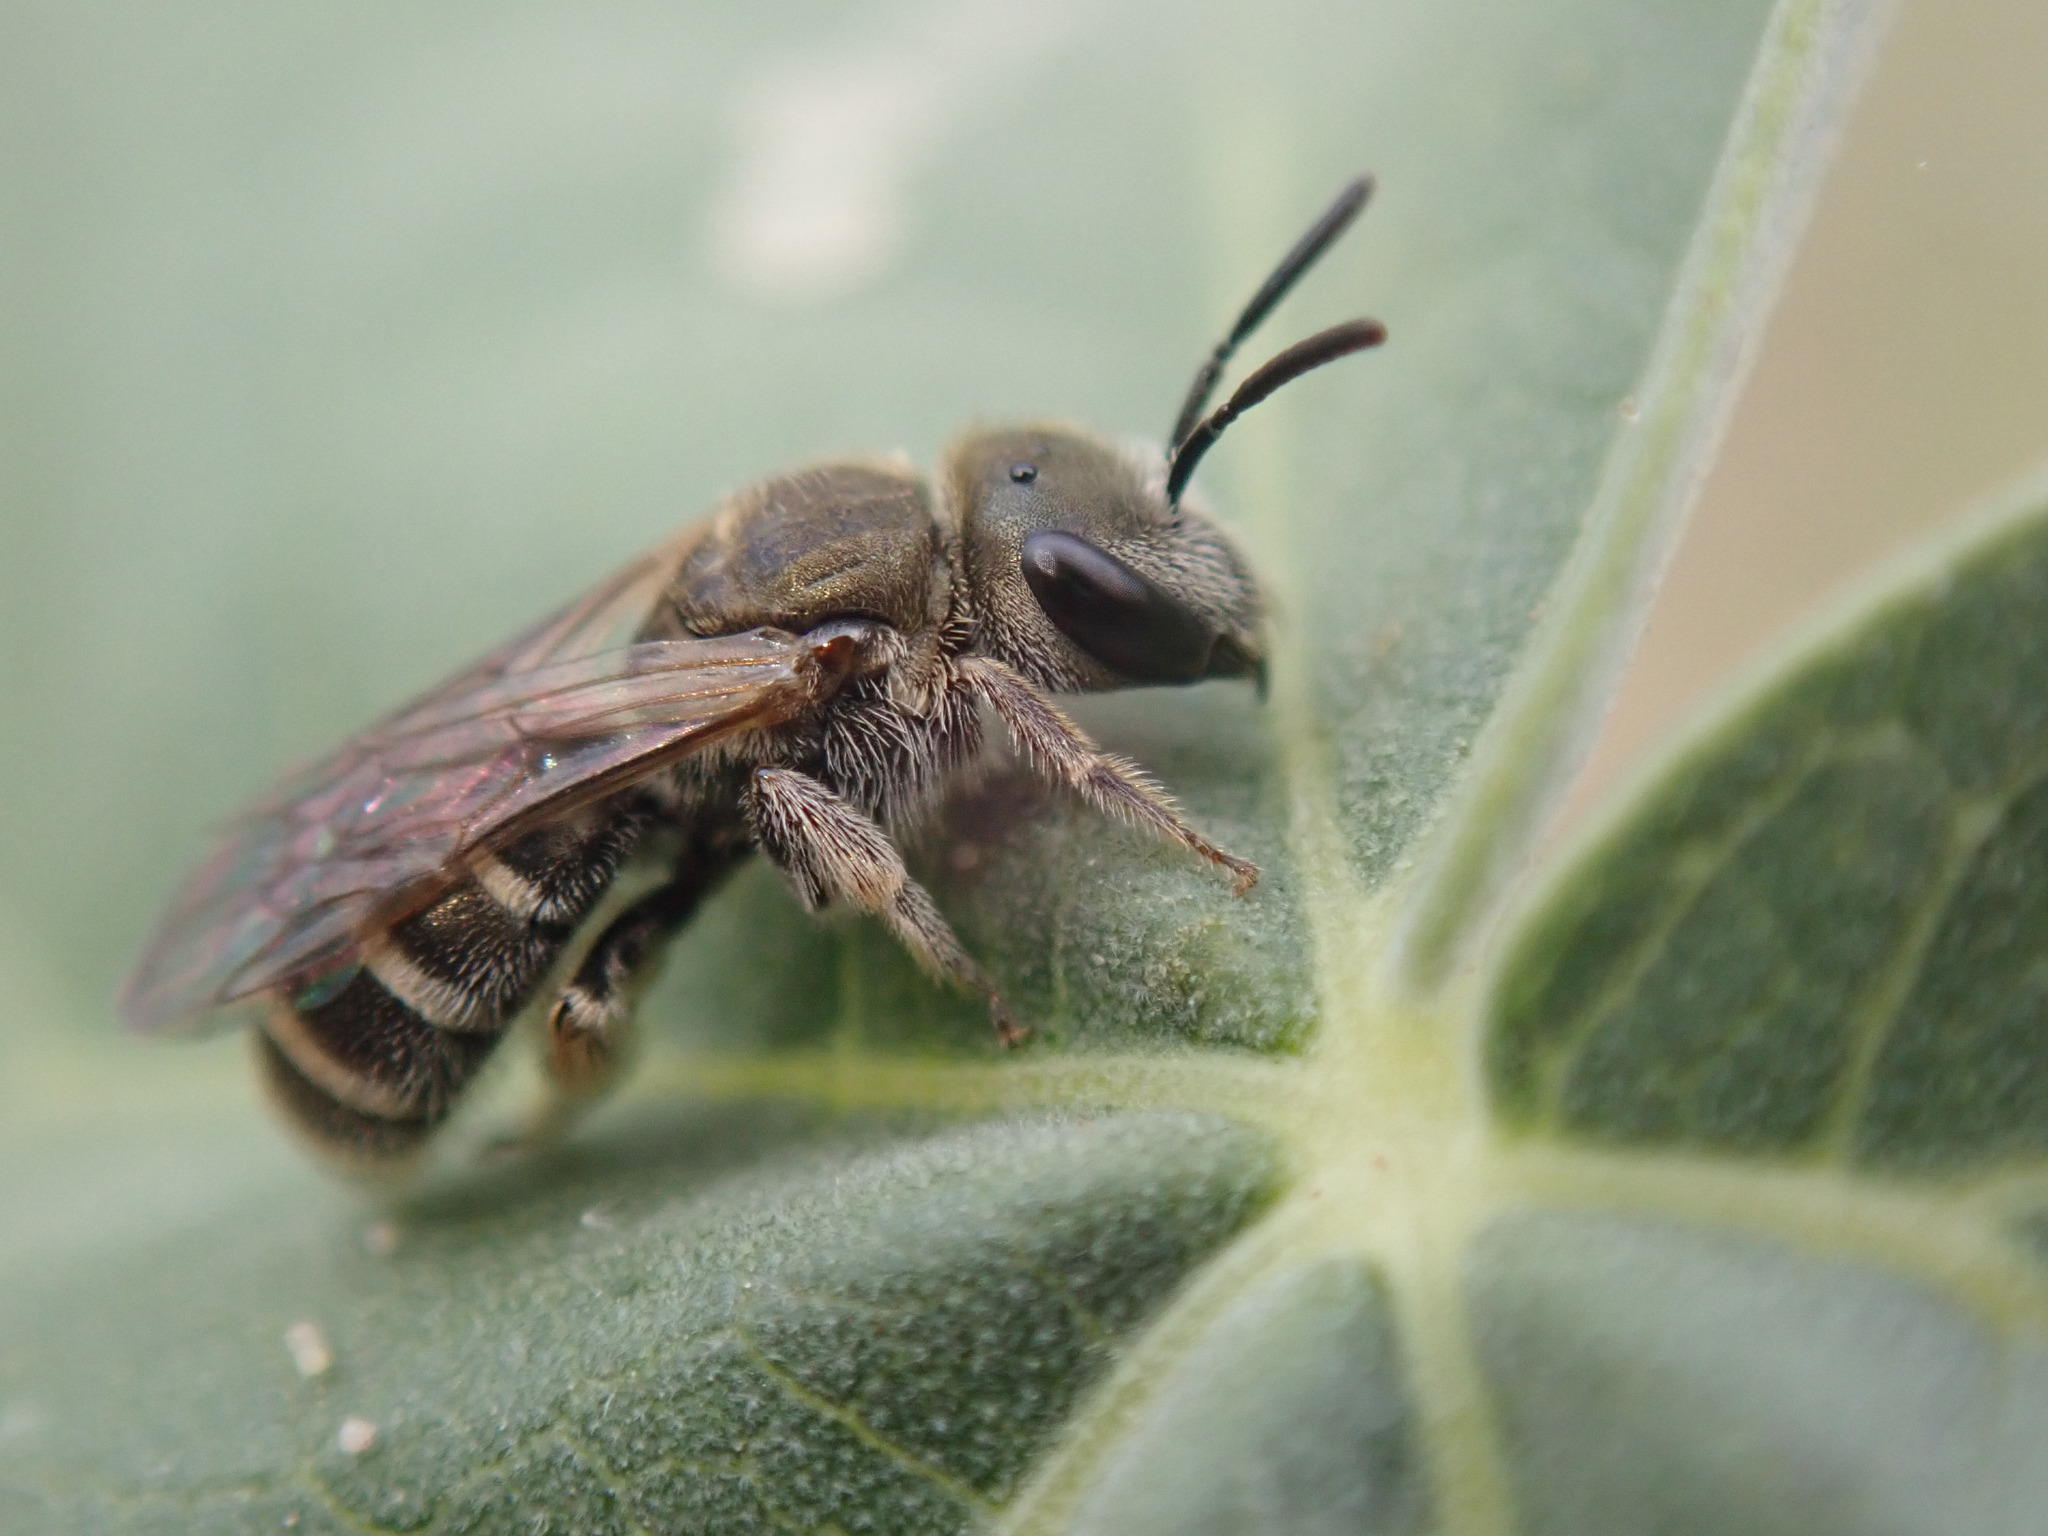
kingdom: Animalia
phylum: Arthropoda
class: Insecta
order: Hymenoptera
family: Halictidae
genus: Halictus
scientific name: Halictus tripartitus
